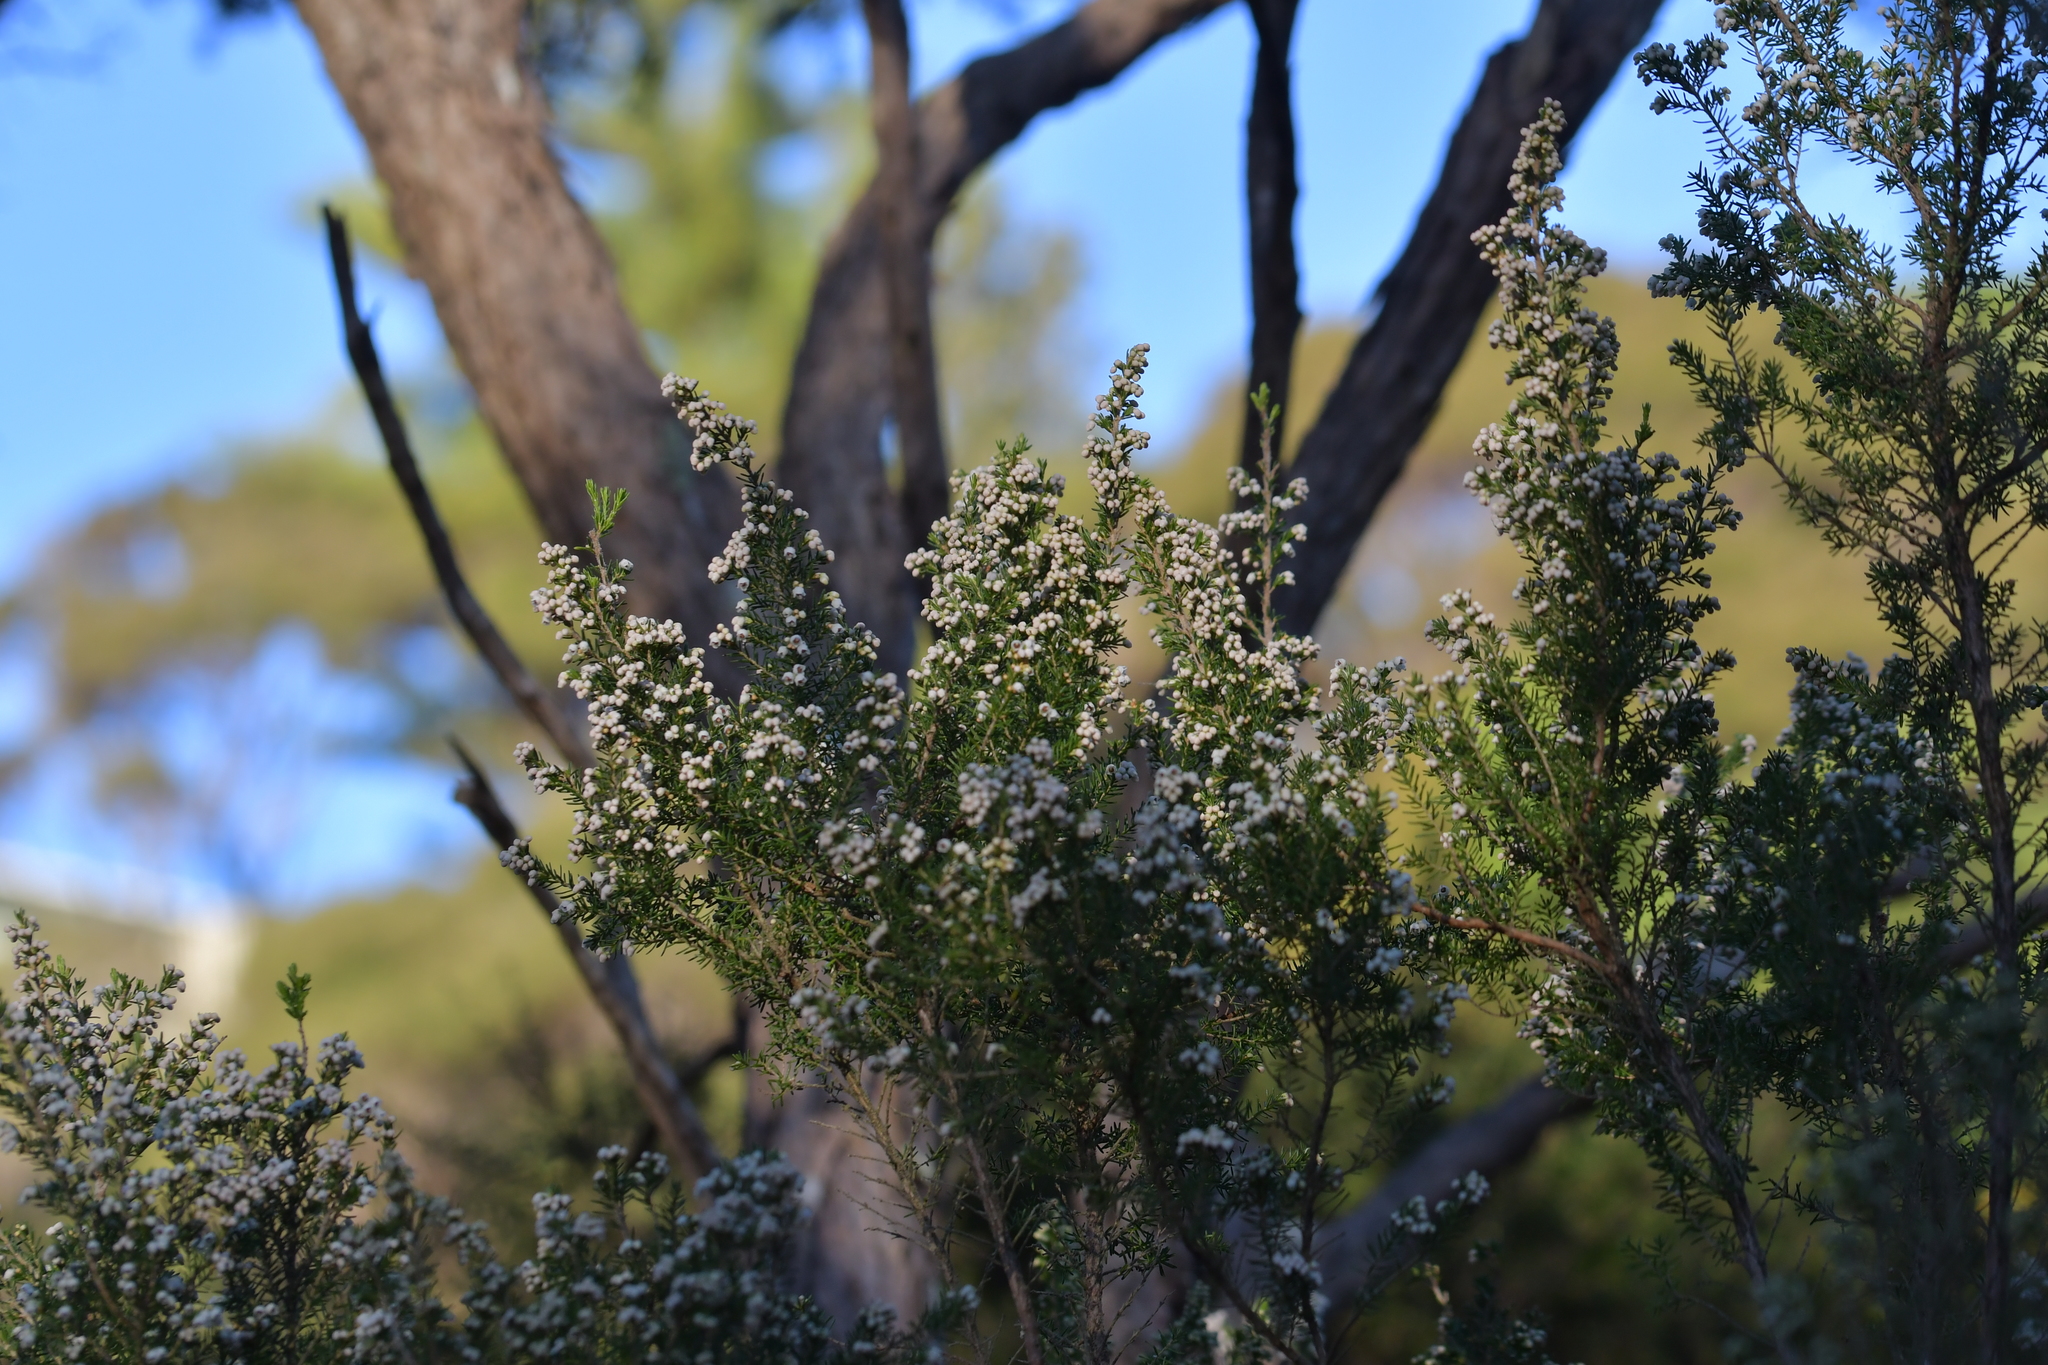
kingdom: Plantae
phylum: Tracheophyta
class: Magnoliopsida
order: Ericales
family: Ericaceae
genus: Erica
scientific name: Erica lusitanica
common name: Spanish heath
